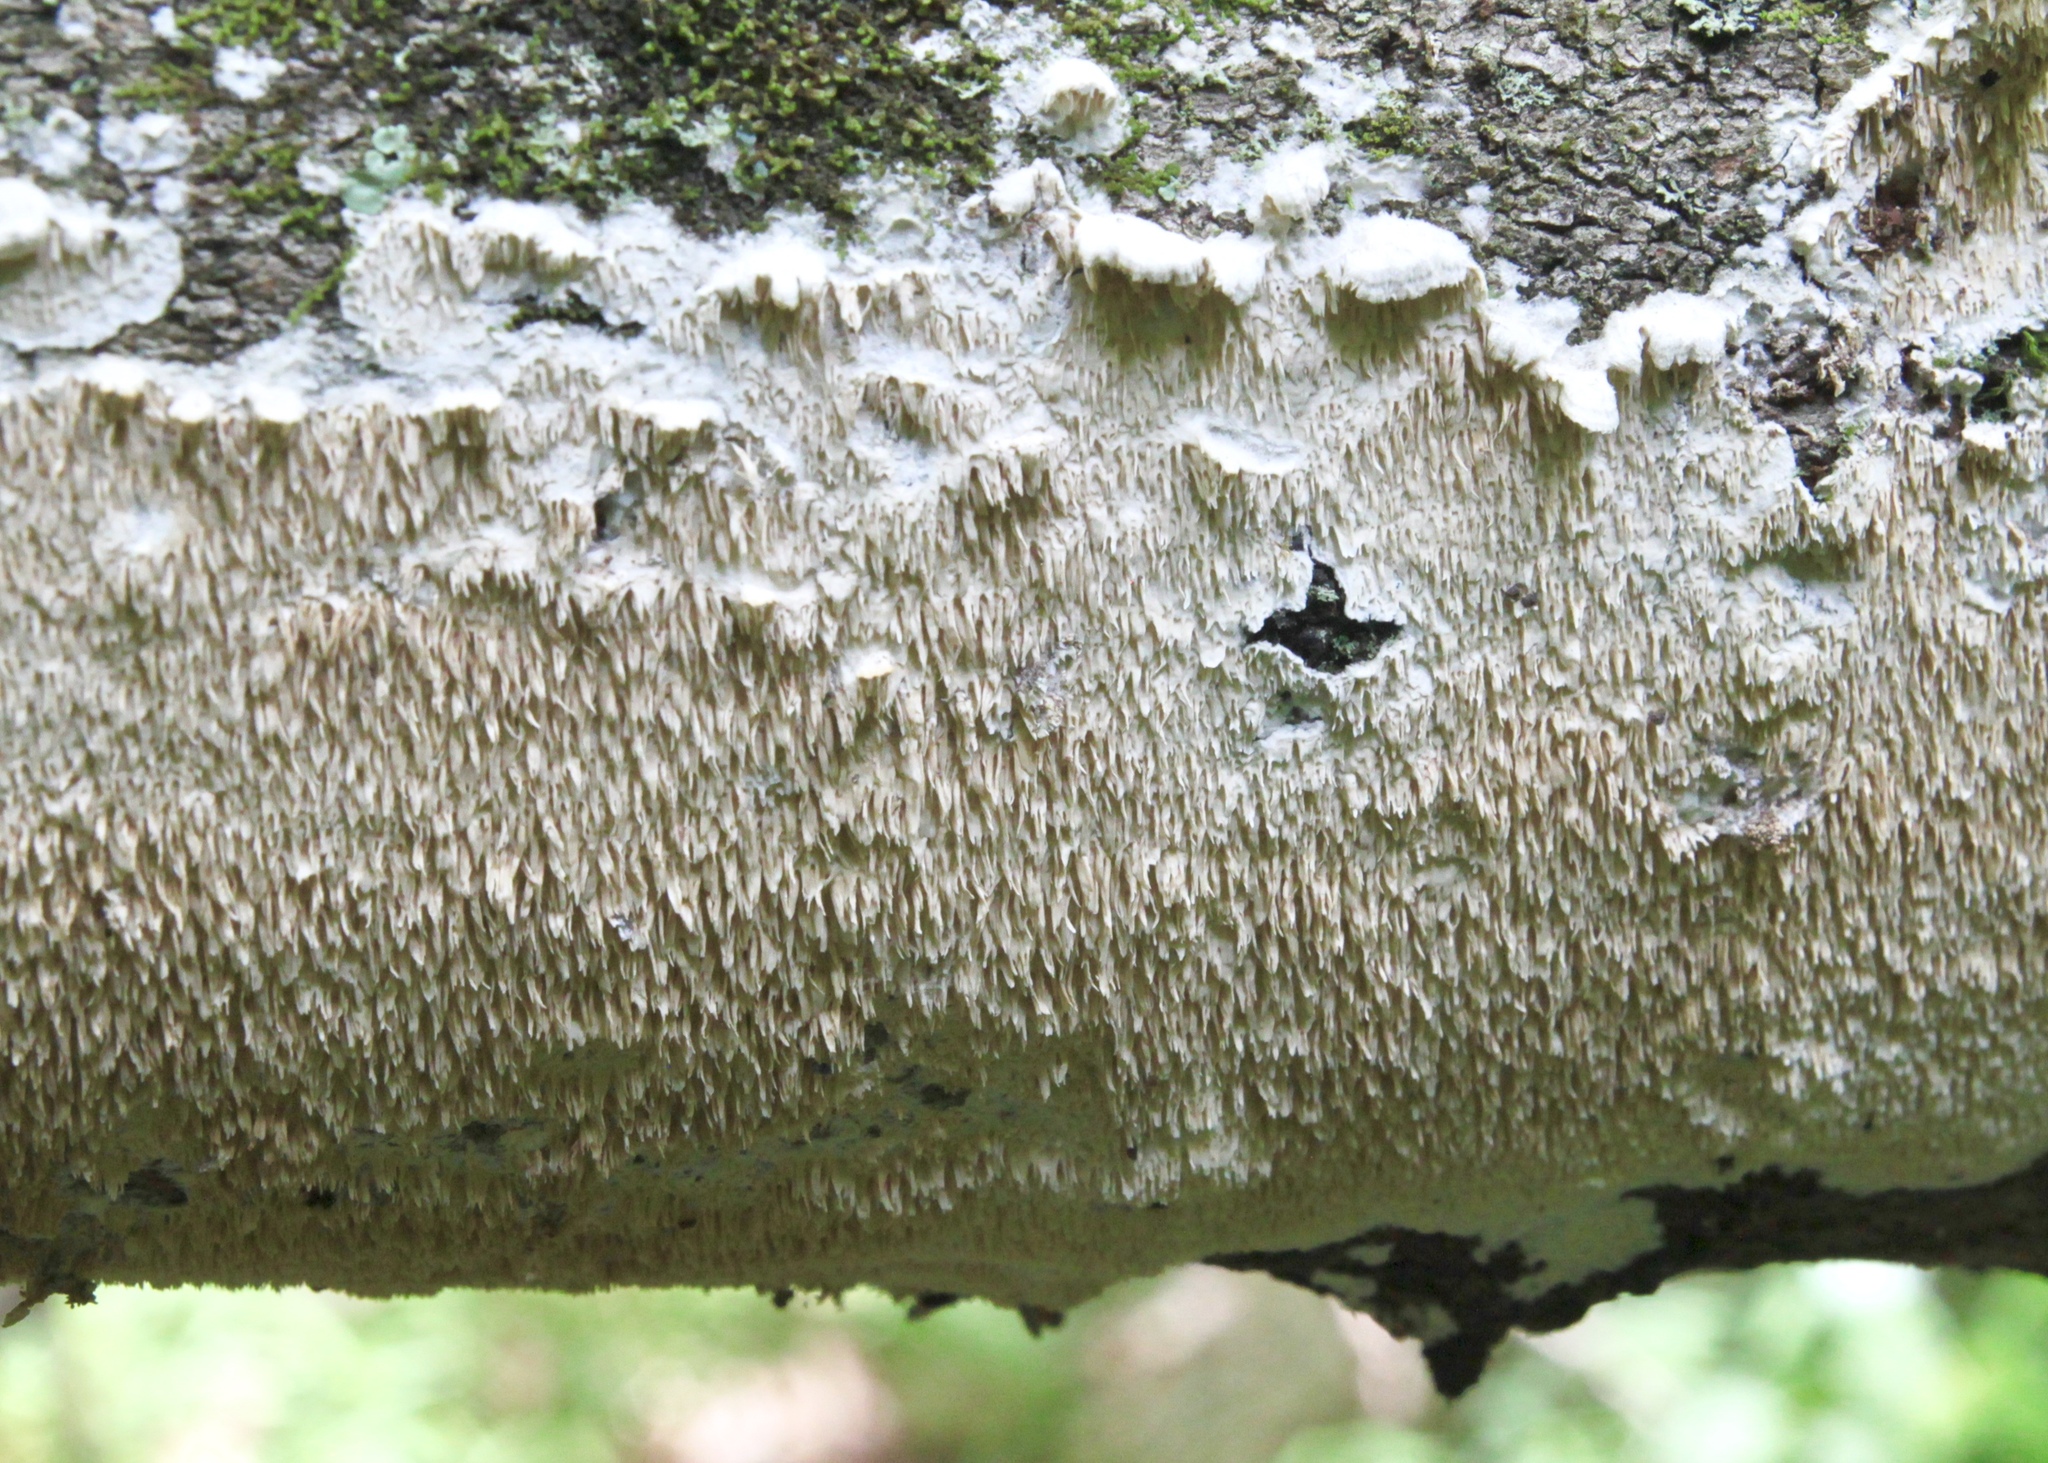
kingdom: Fungi
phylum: Basidiomycota
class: Agaricomycetes
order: Polyporales
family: Irpicaceae
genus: Irpex
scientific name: Irpex lacteus
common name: Milk-white toothed polypore
